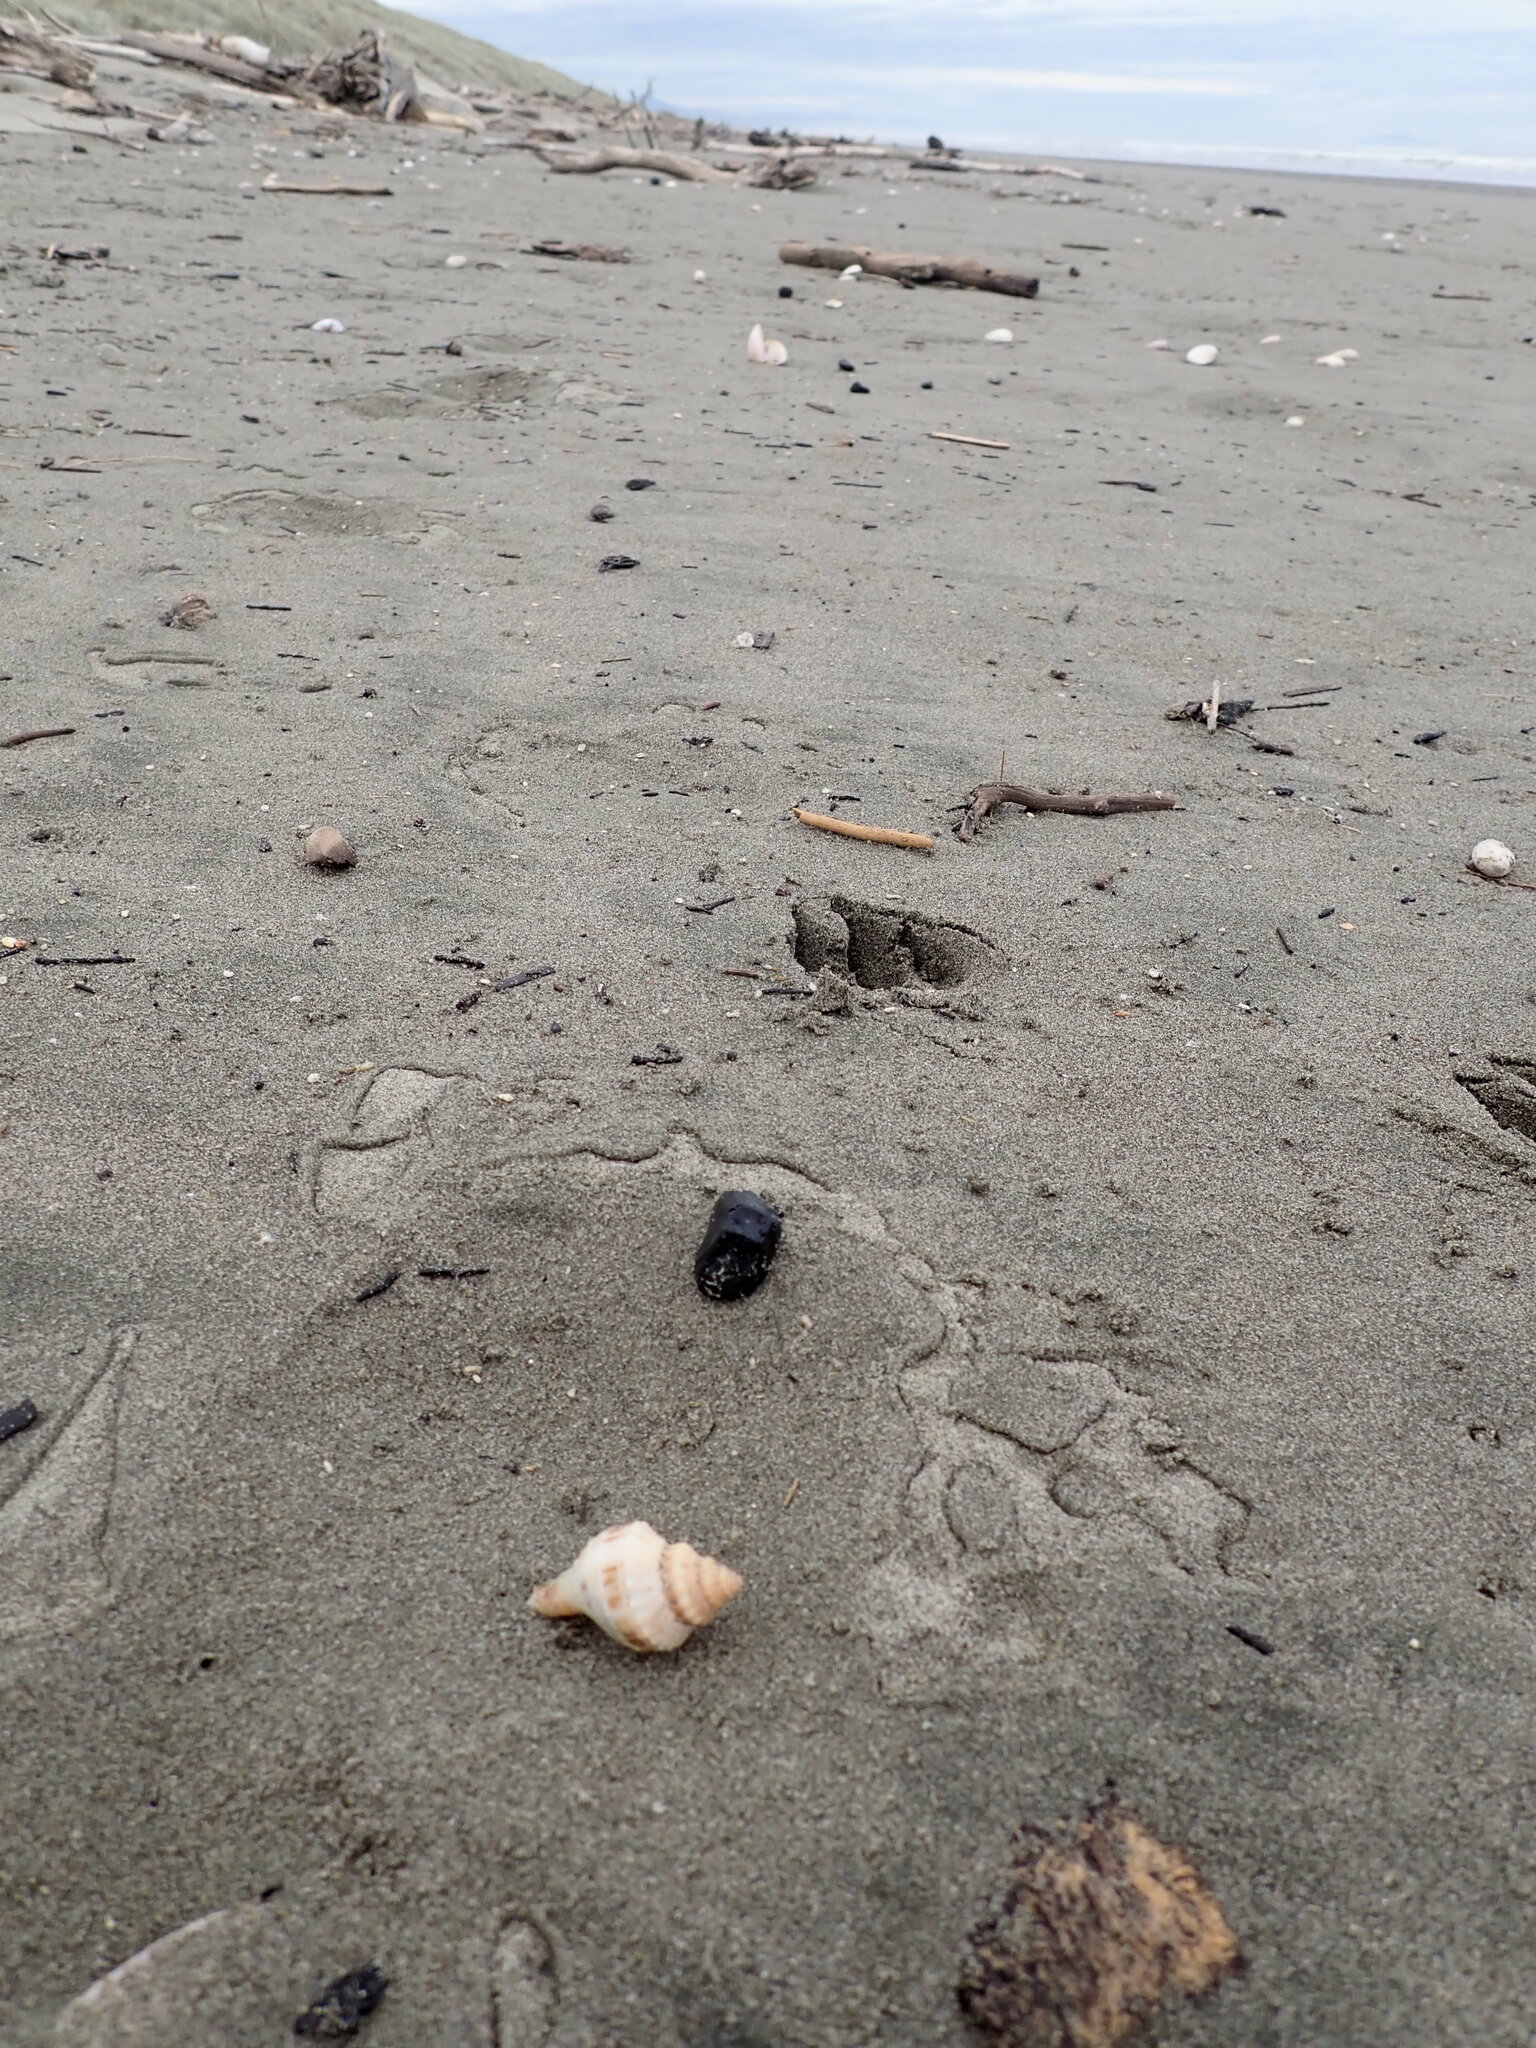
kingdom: Animalia
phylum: Mollusca
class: Gastropoda
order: Neogastropoda
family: Prosiphonidae
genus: Austrofusus
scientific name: Austrofusus glans
